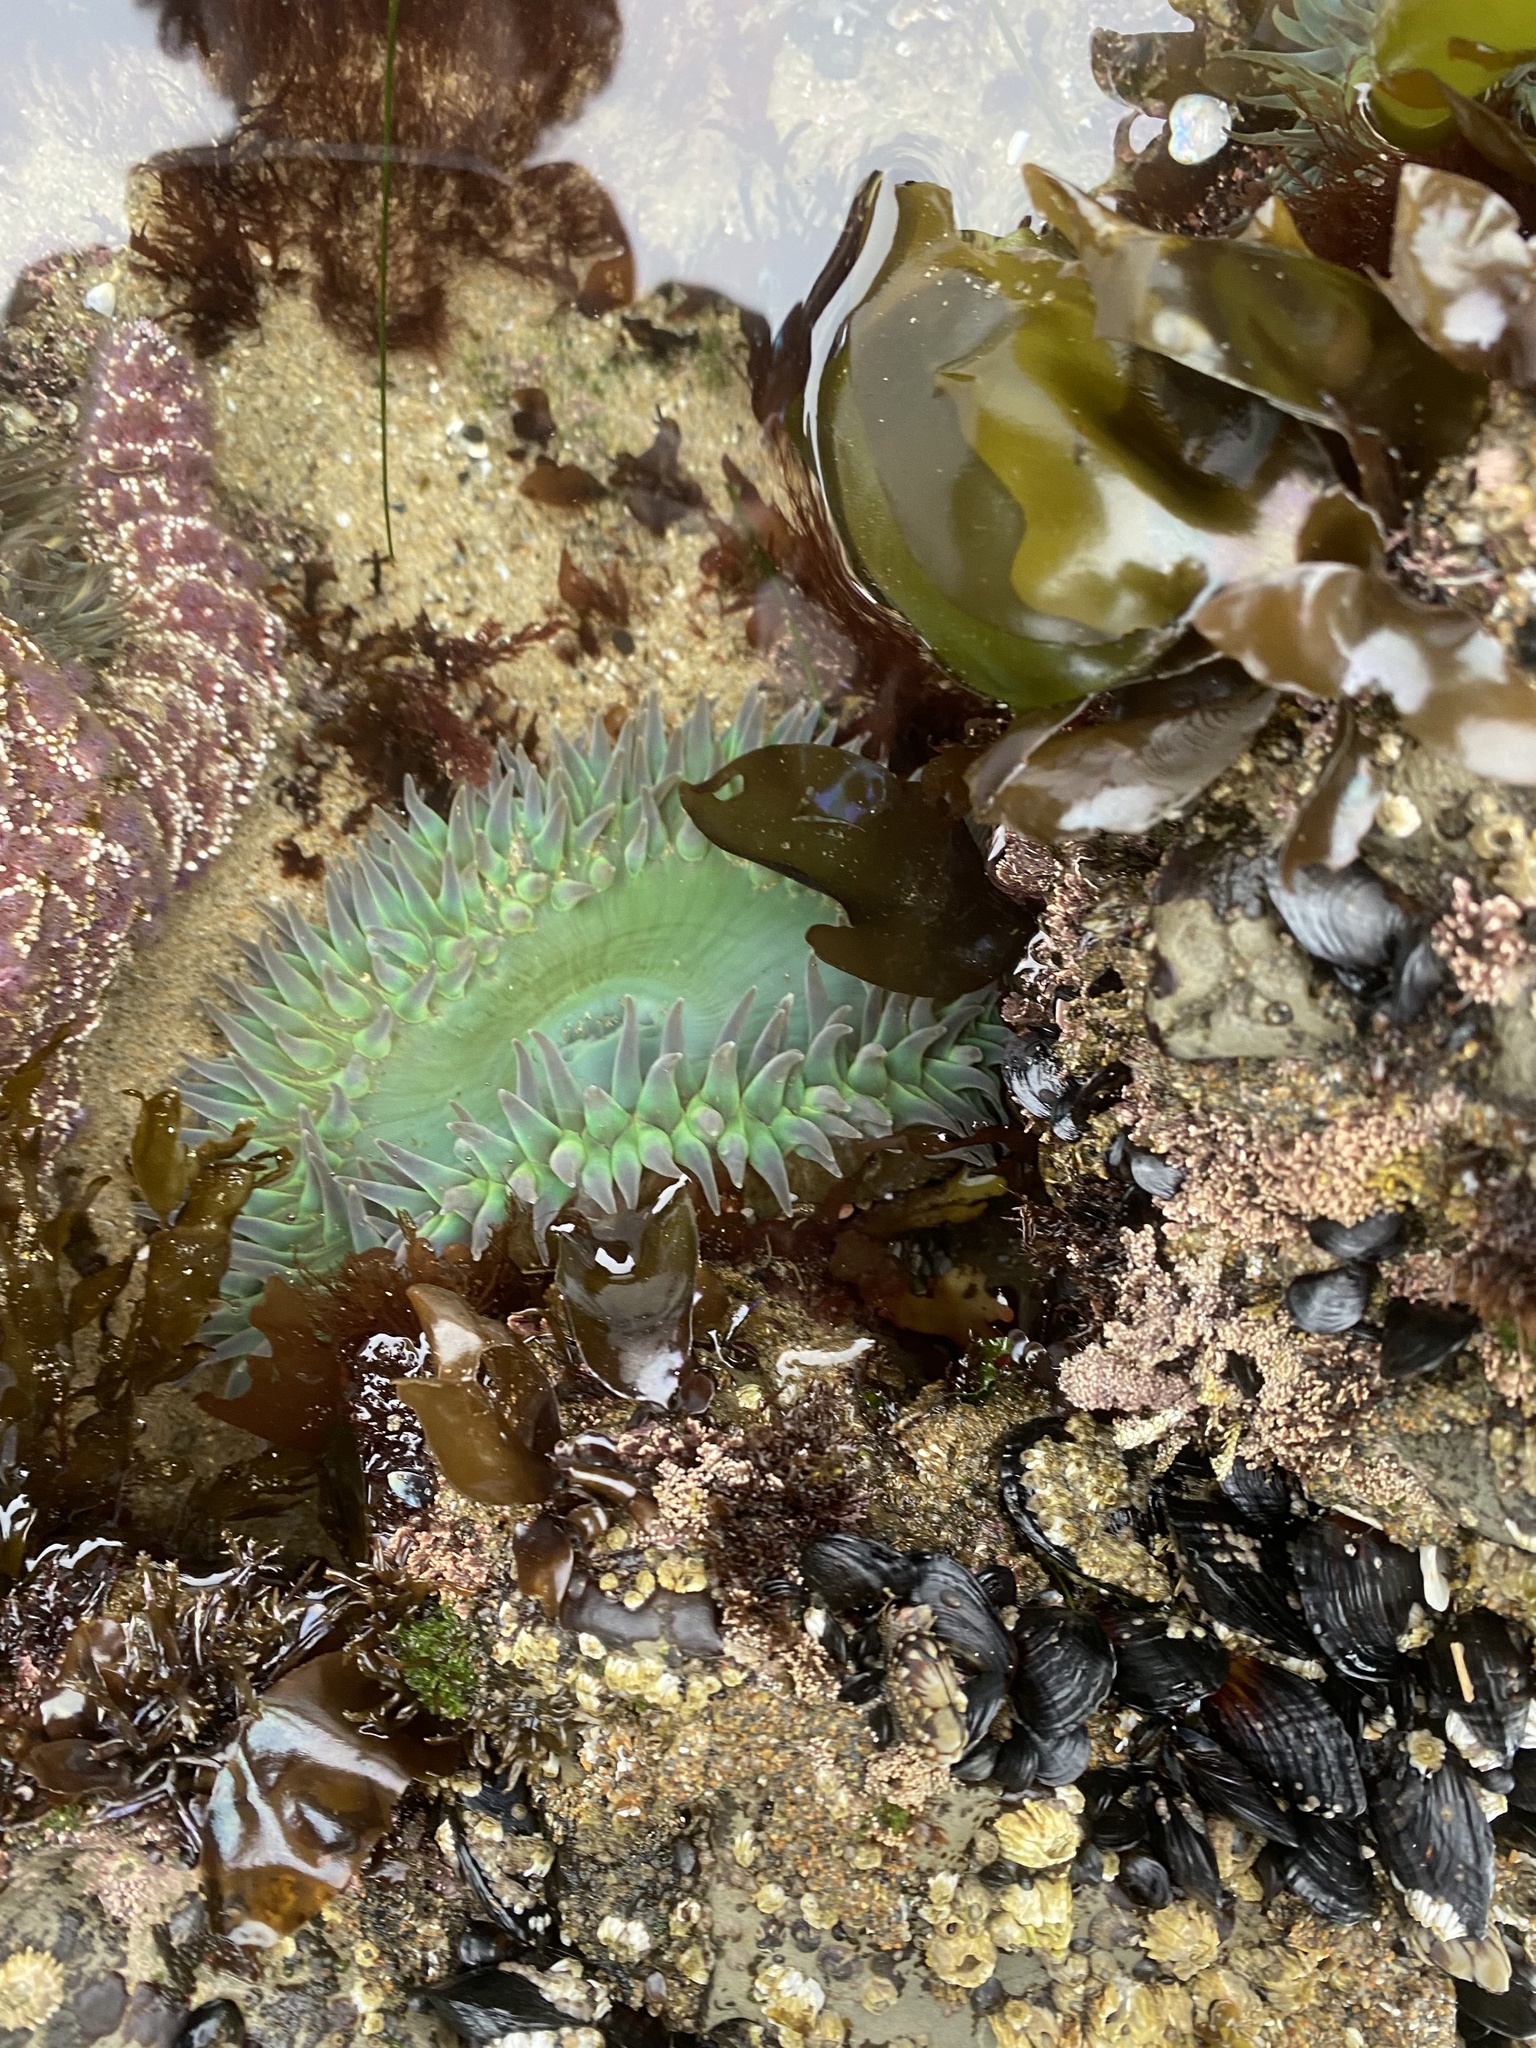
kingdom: Animalia
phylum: Cnidaria
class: Anthozoa
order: Actiniaria
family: Actiniidae
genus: Anthopleura
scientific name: Anthopleura xanthogrammica
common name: Giant green anemone
